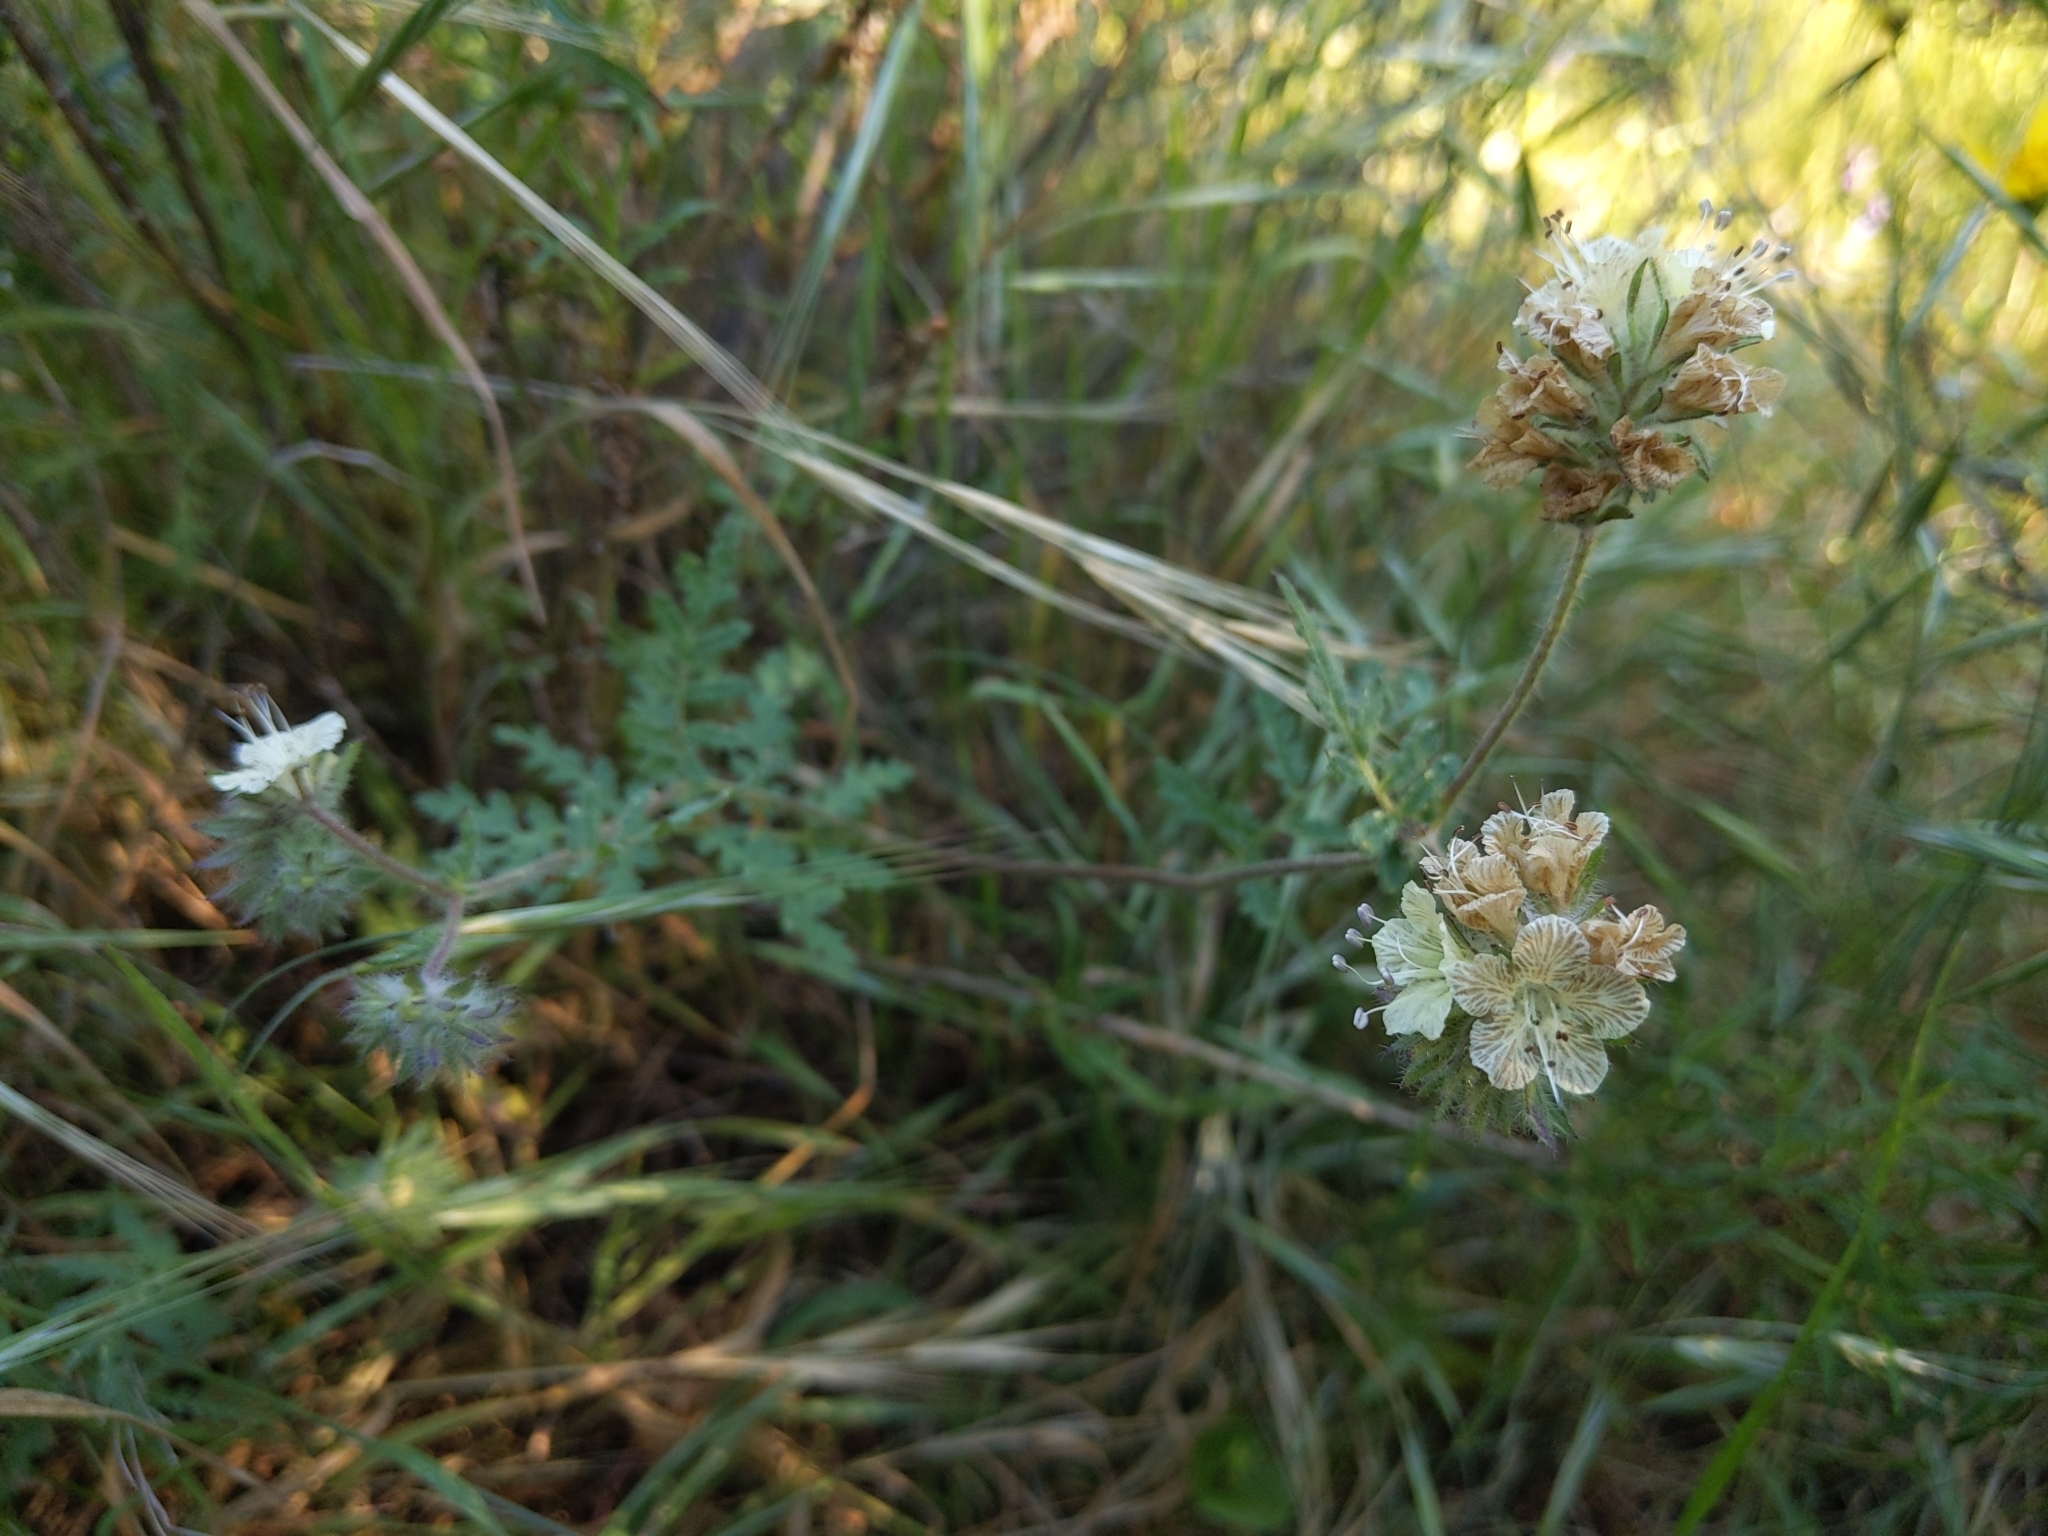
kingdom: Plantae
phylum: Tracheophyta
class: Magnoliopsida
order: Boraginales
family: Hydrophyllaceae
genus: Phacelia
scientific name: Phacelia distans
